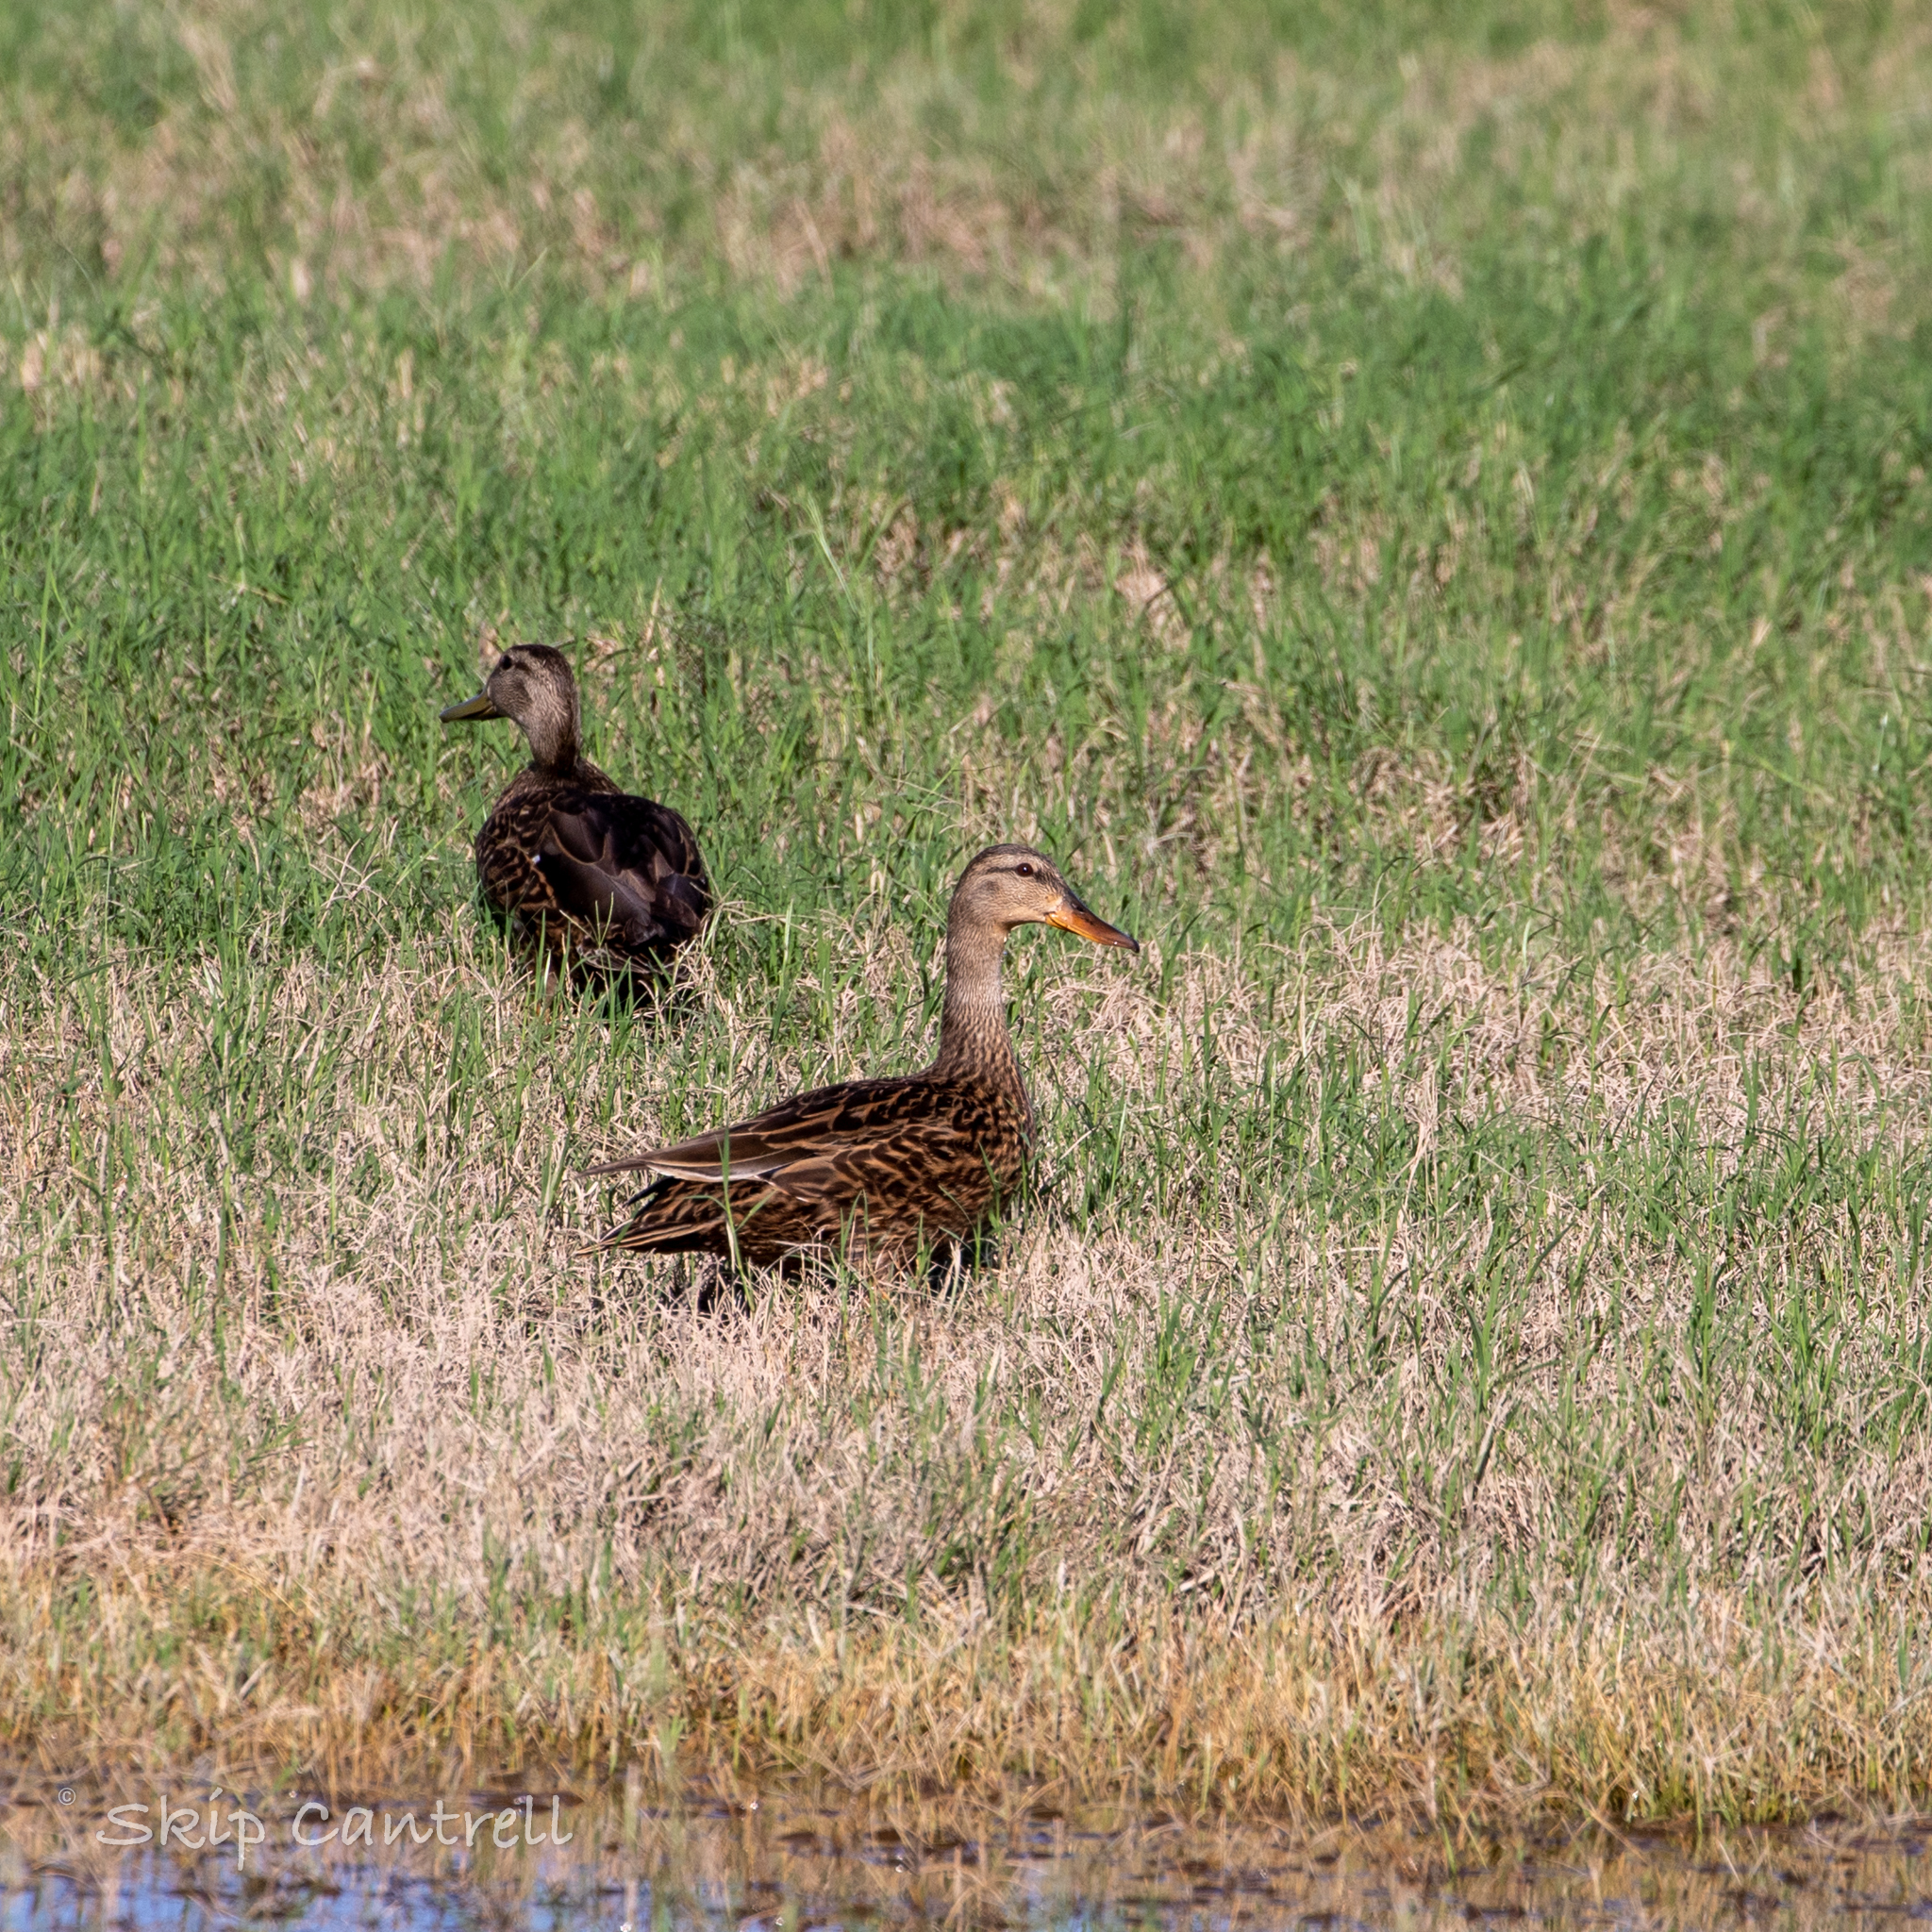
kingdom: Animalia
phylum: Chordata
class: Aves
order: Anseriformes
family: Anatidae
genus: Anas
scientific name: Anas diazi
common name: Mexican duck
